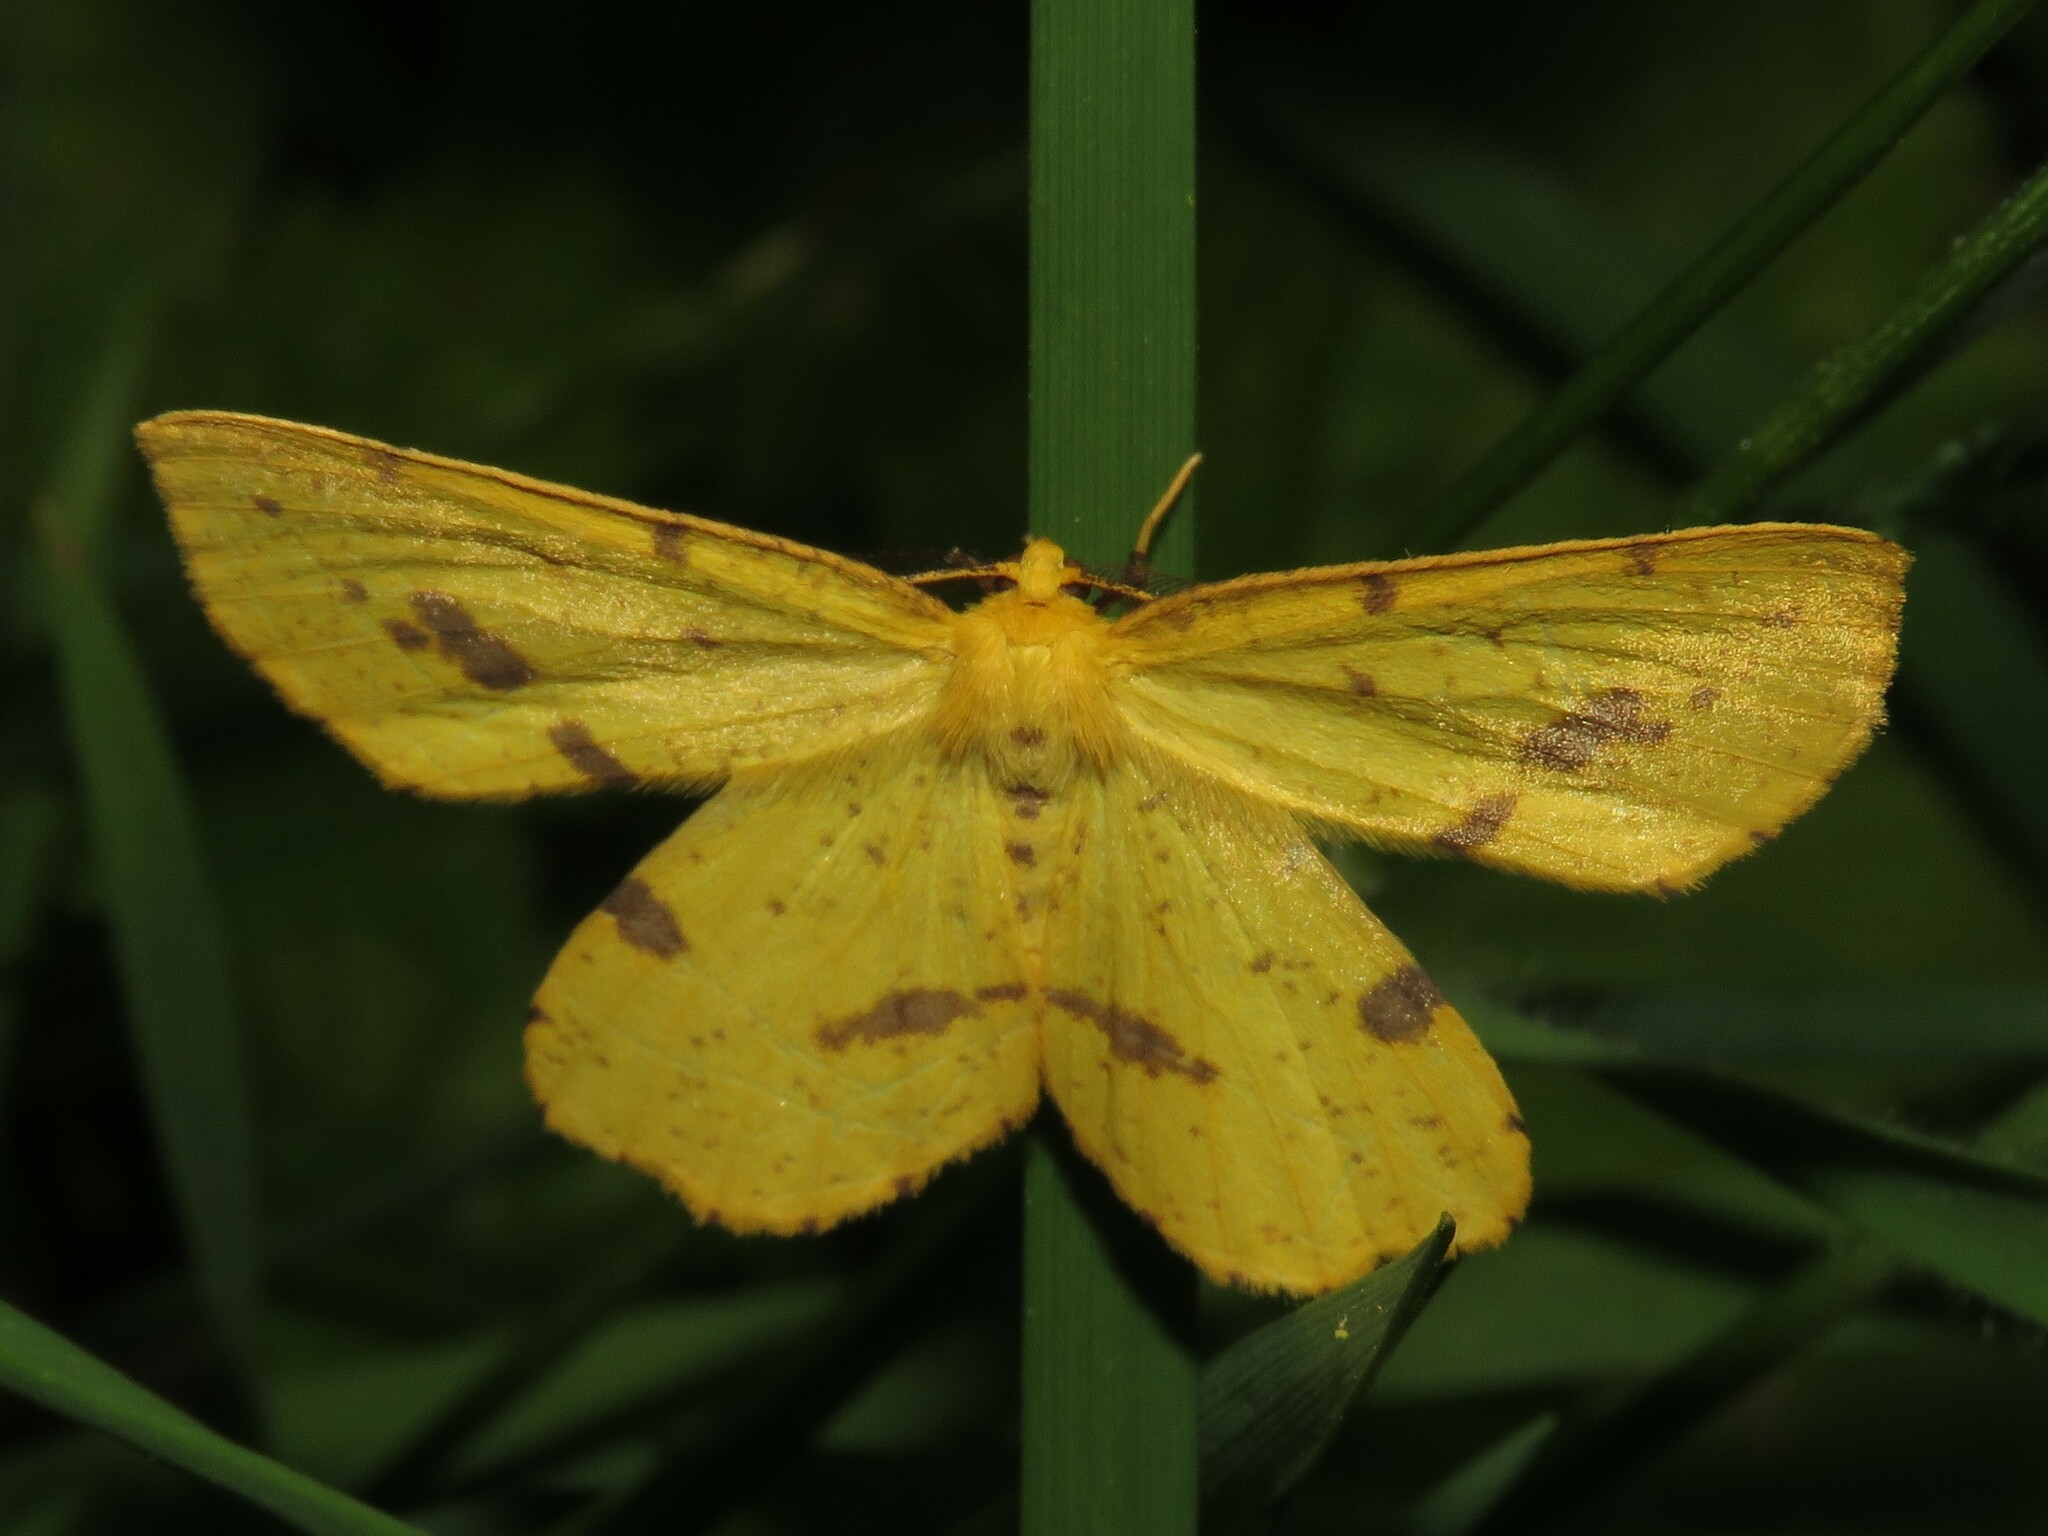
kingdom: Animalia
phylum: Arthropoda
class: Insecta
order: Lepidoptera
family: Geometridae
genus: Xanthotype
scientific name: Xanthotype
